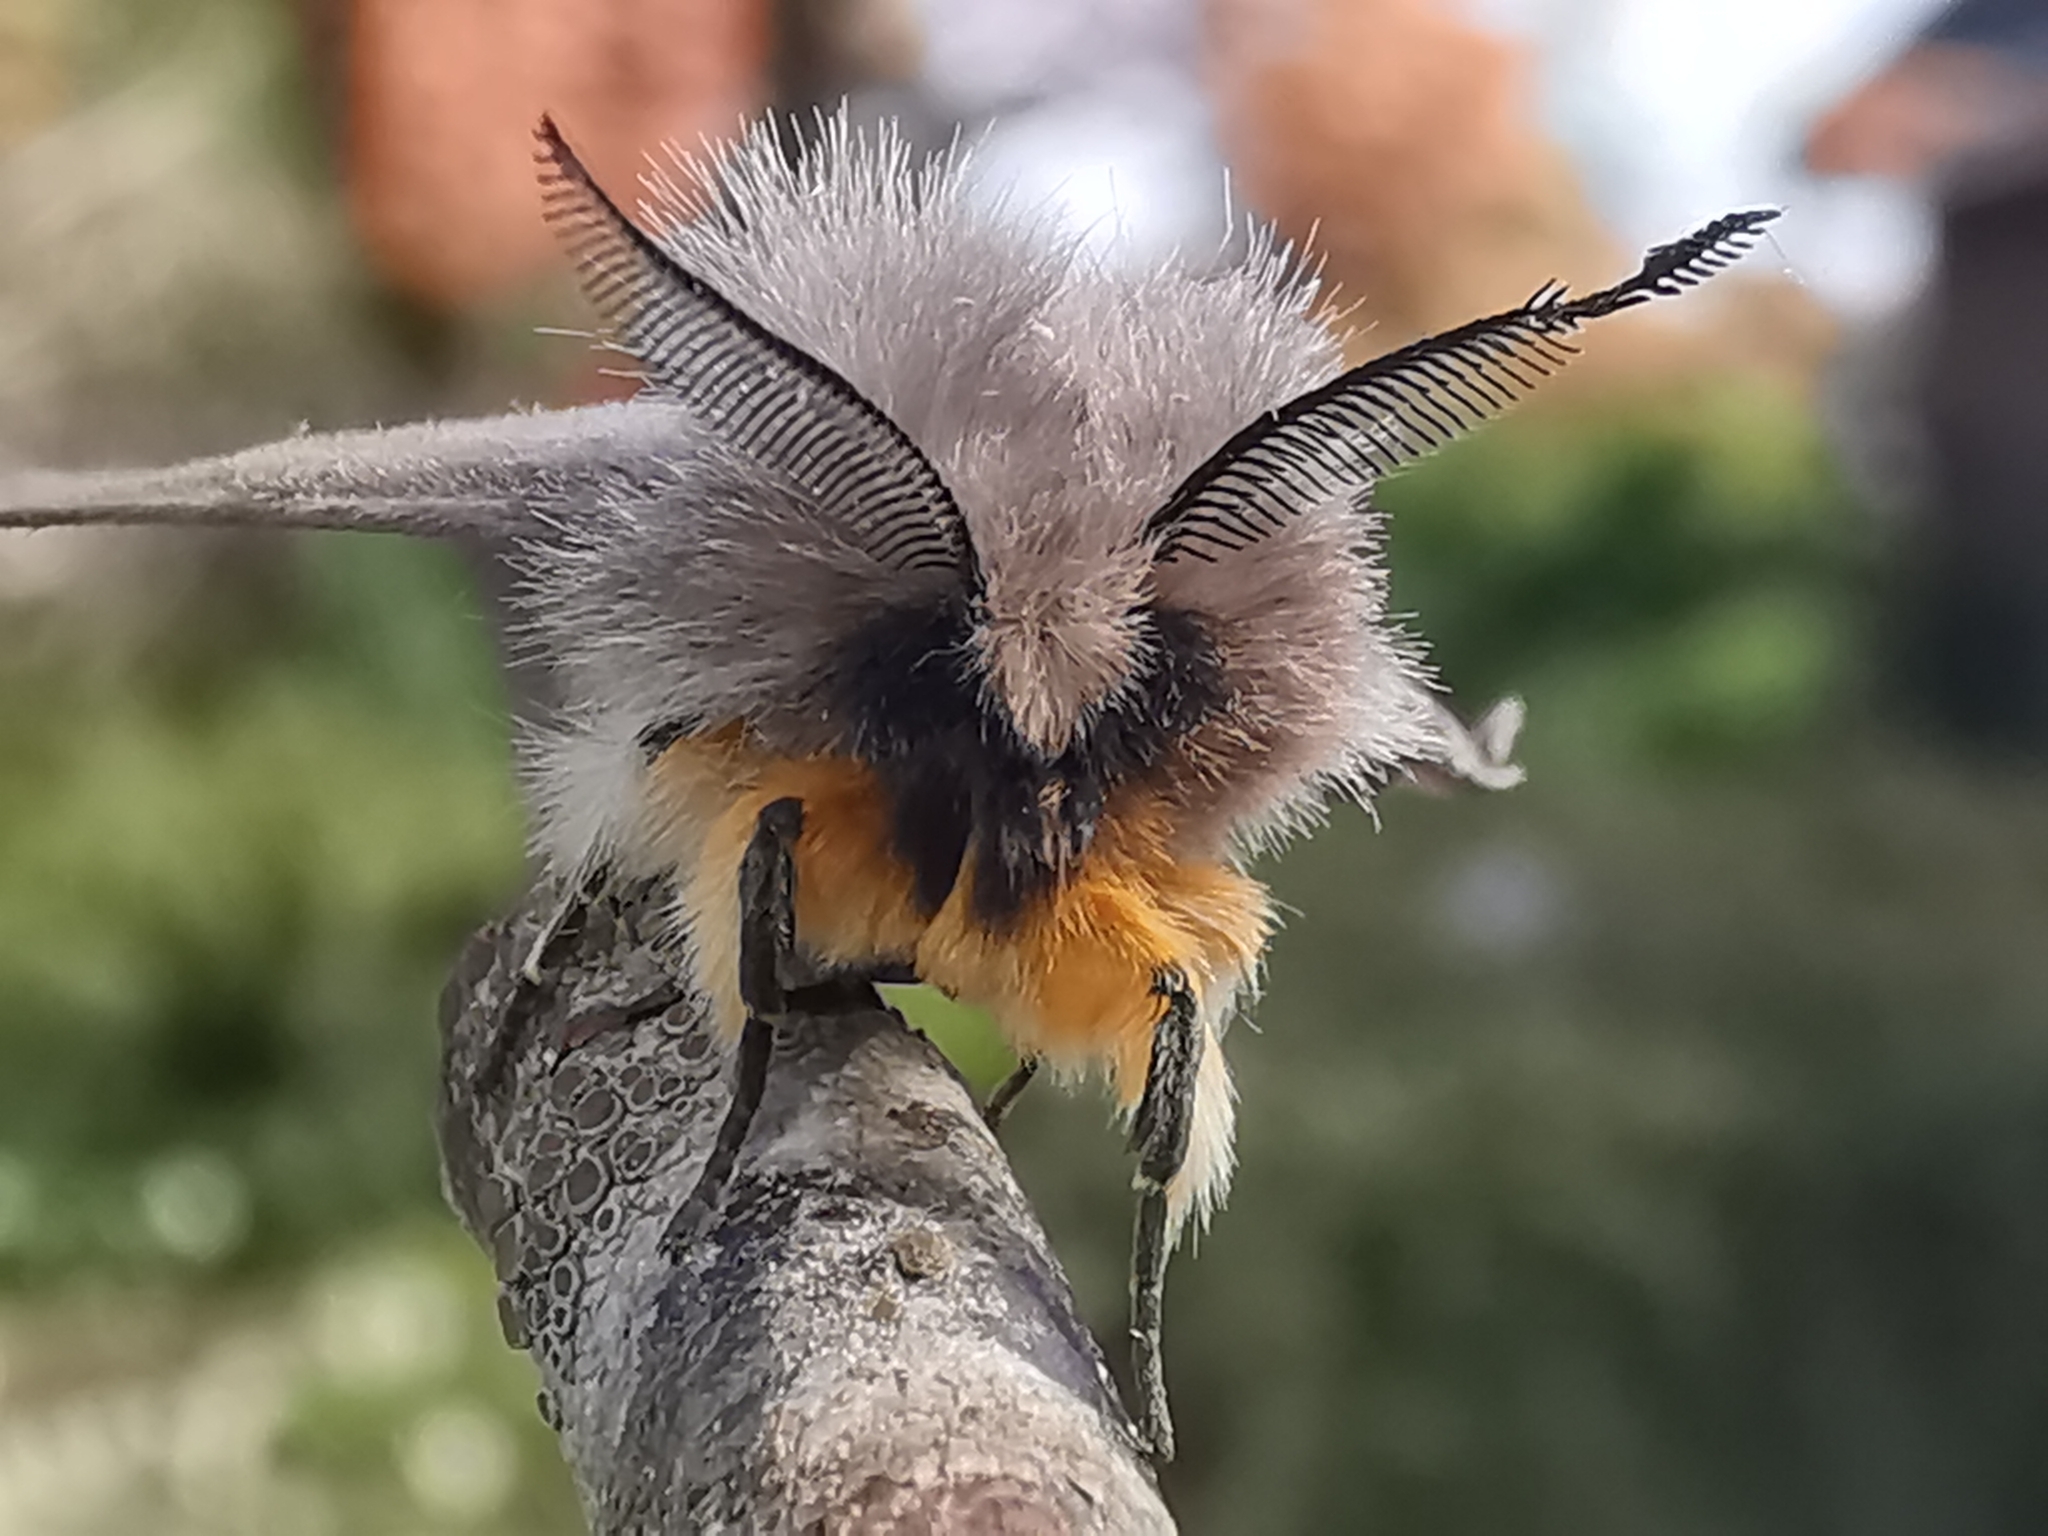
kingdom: Animalia
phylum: Arthropoda
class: Insecta
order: Lepidoptera
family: Erebidae
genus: Diaphora
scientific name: Diaphora mendica
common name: Muslin moth
